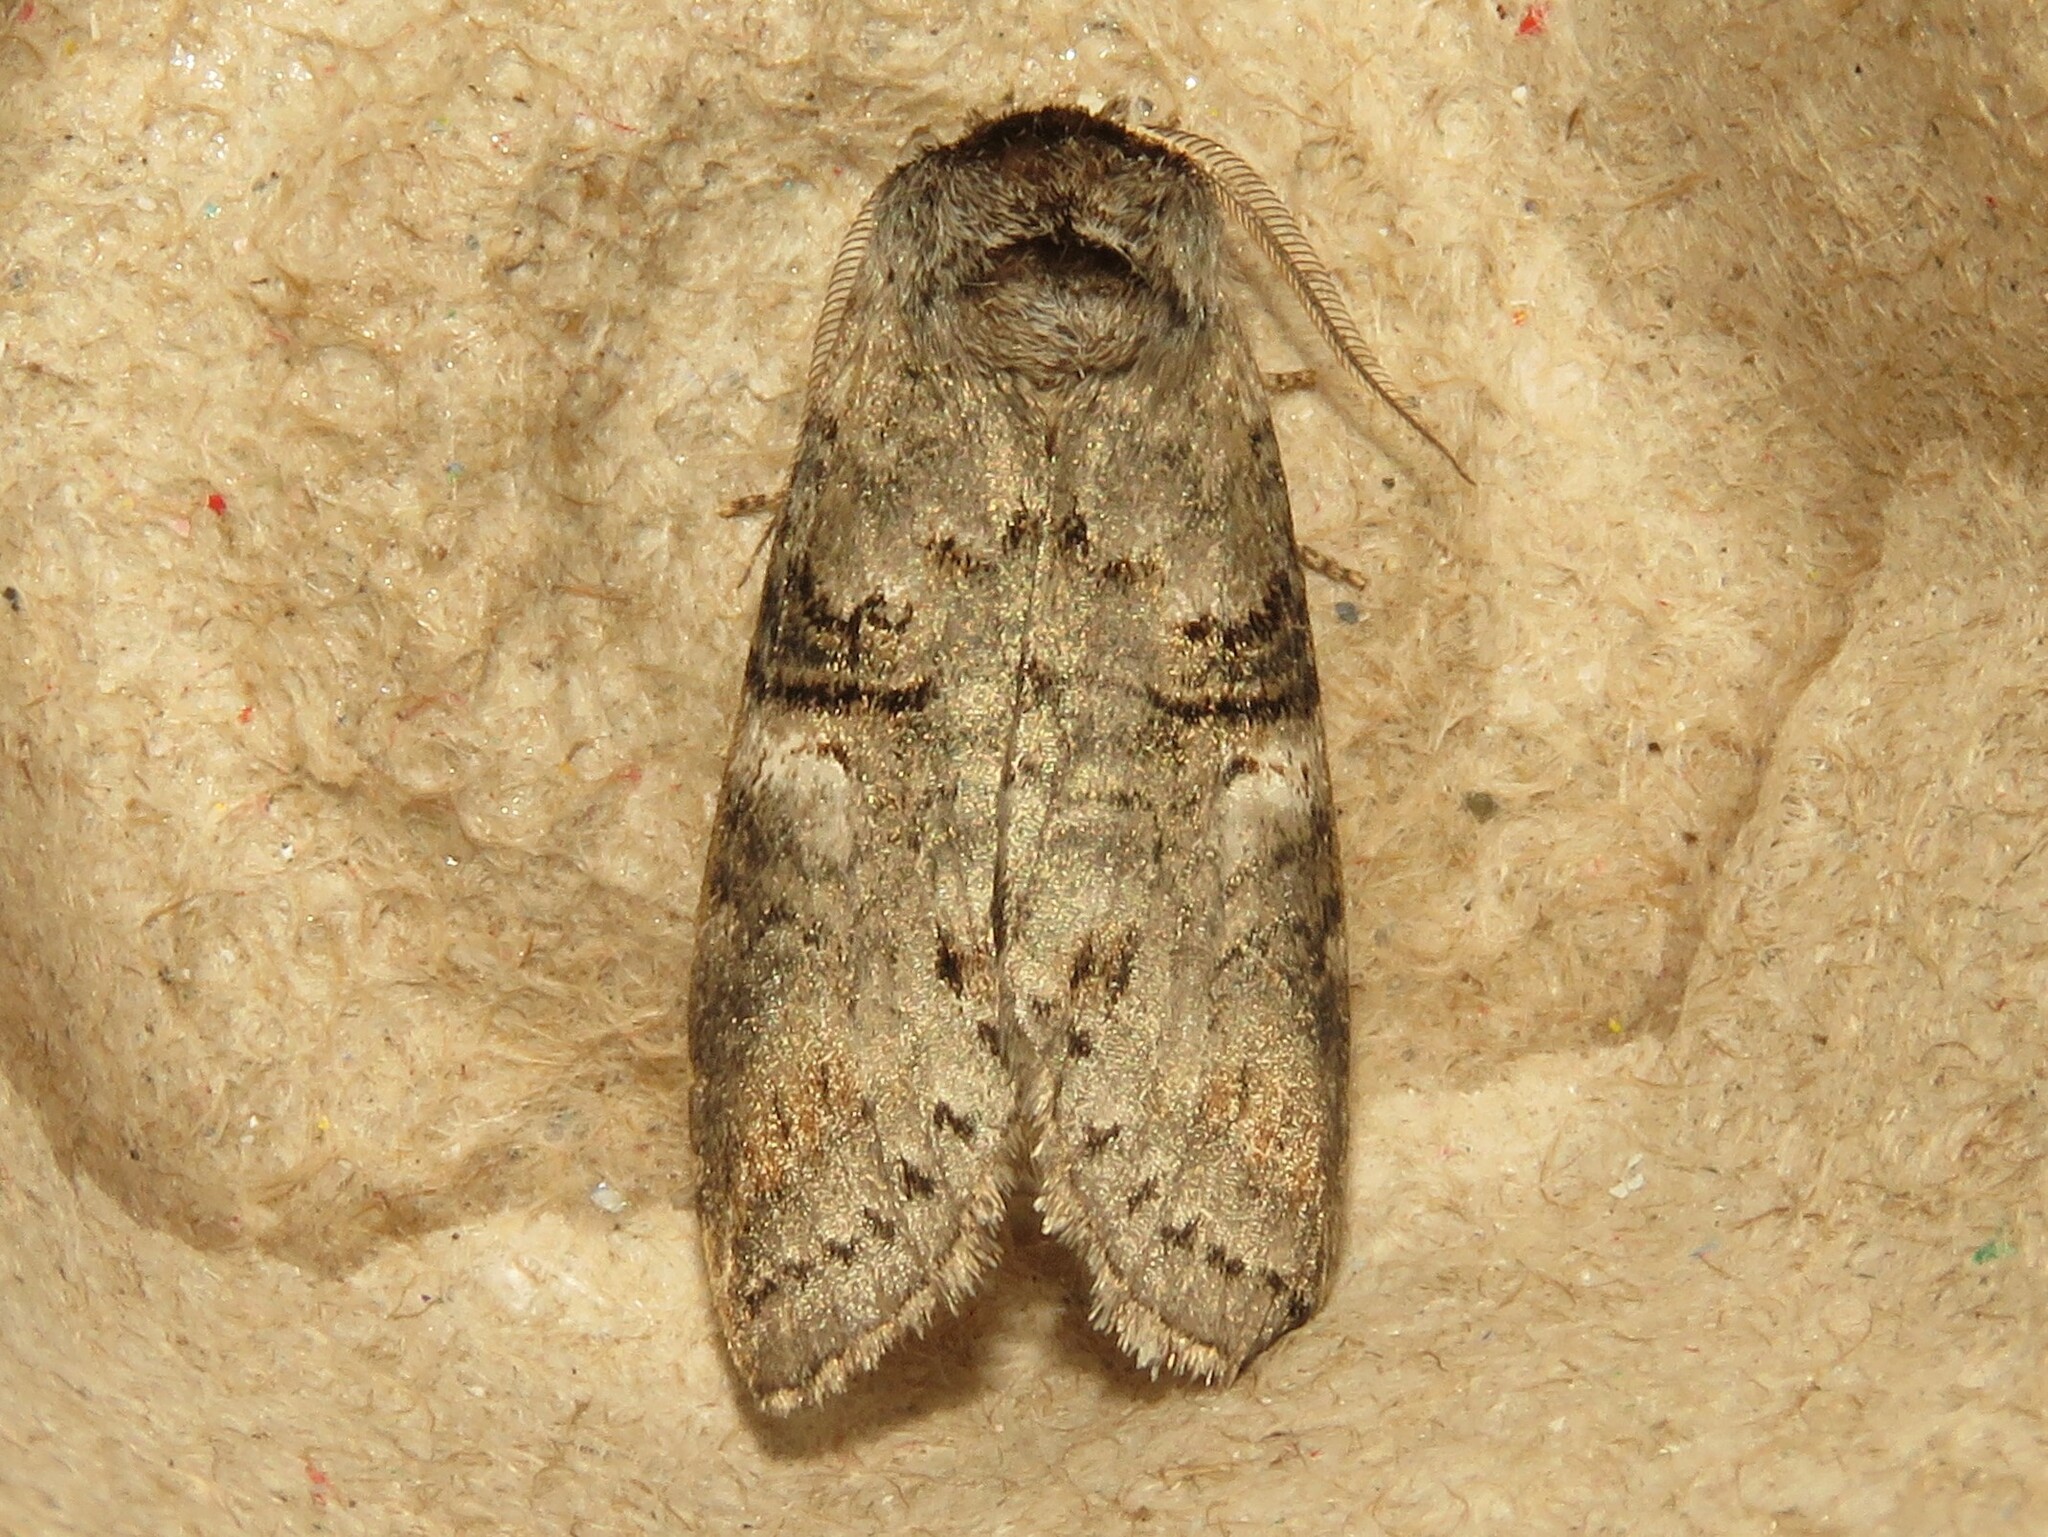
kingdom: Animalia
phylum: Arthropoda
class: Insecta
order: Lepidoptera
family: Notodontidae
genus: Ellida
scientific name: Ellida caniplaga
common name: Linden prominent
